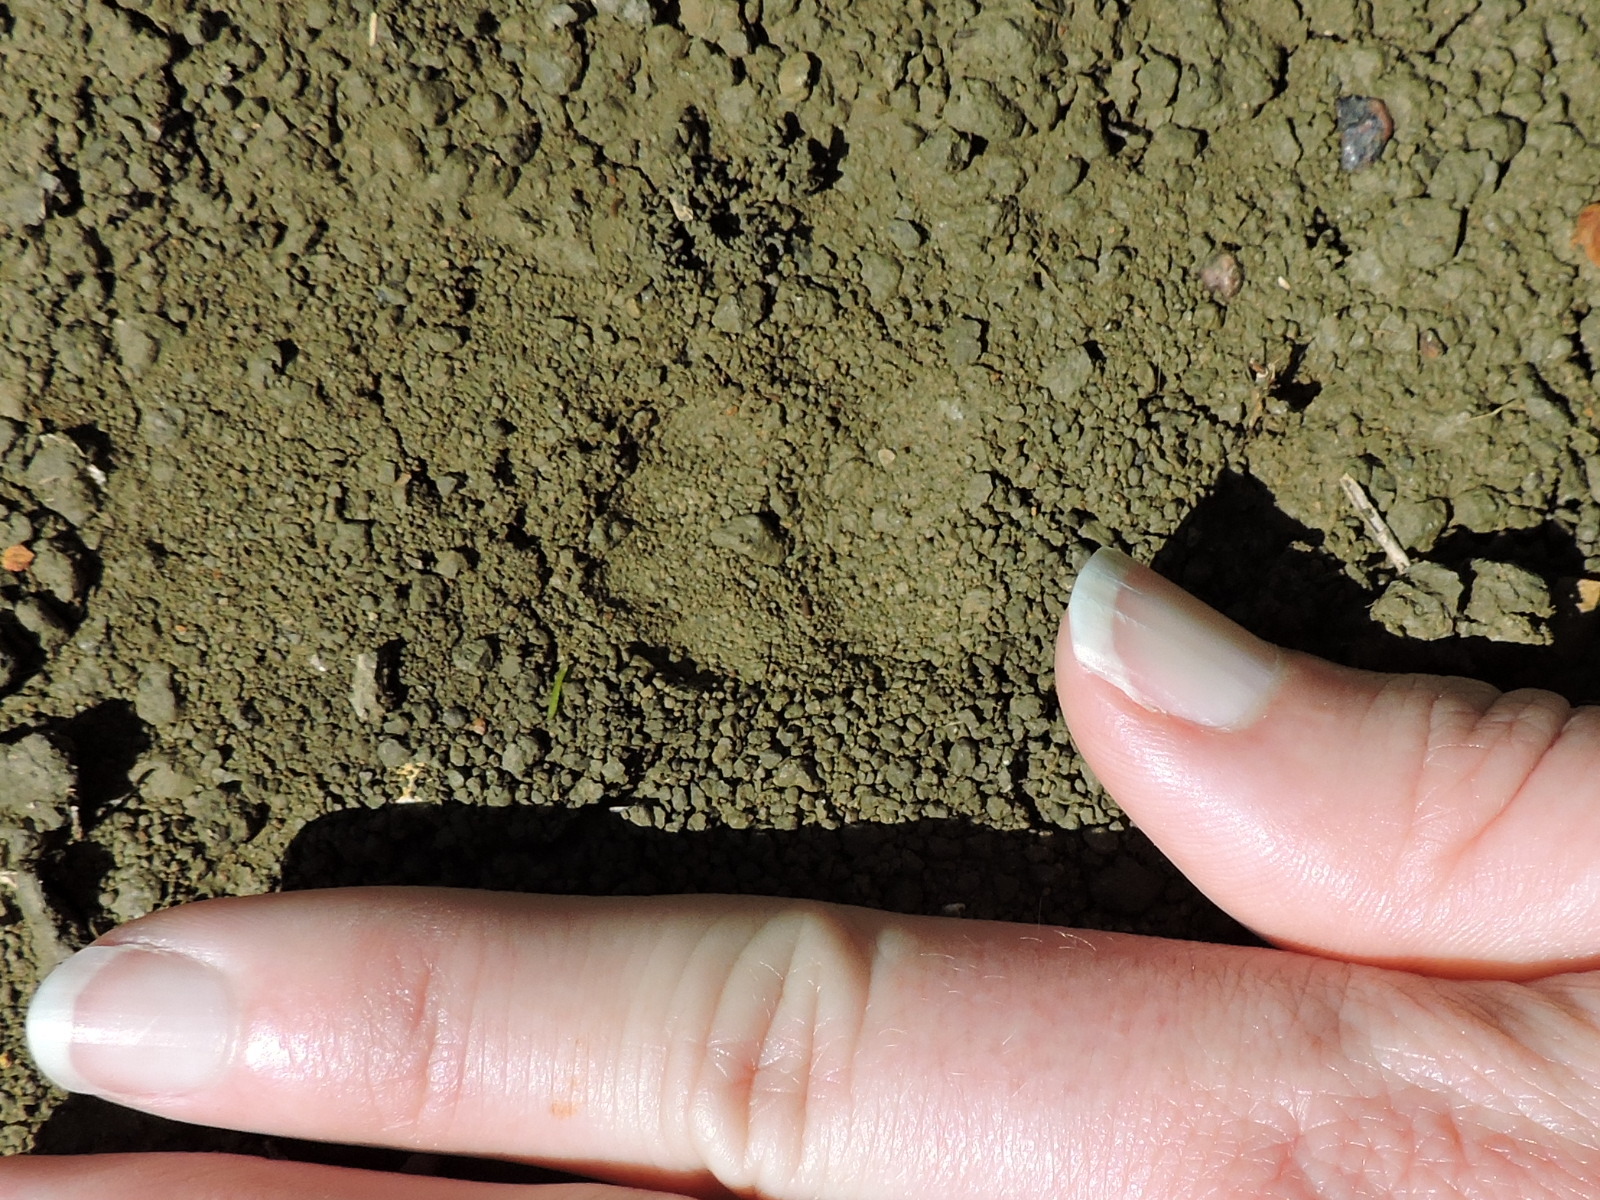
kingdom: Animalia
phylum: Chordata
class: Mammalia
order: Carnivora
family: Mephitidae
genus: Mephitis
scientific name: Mephitis mephitis
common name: Striped skunk
